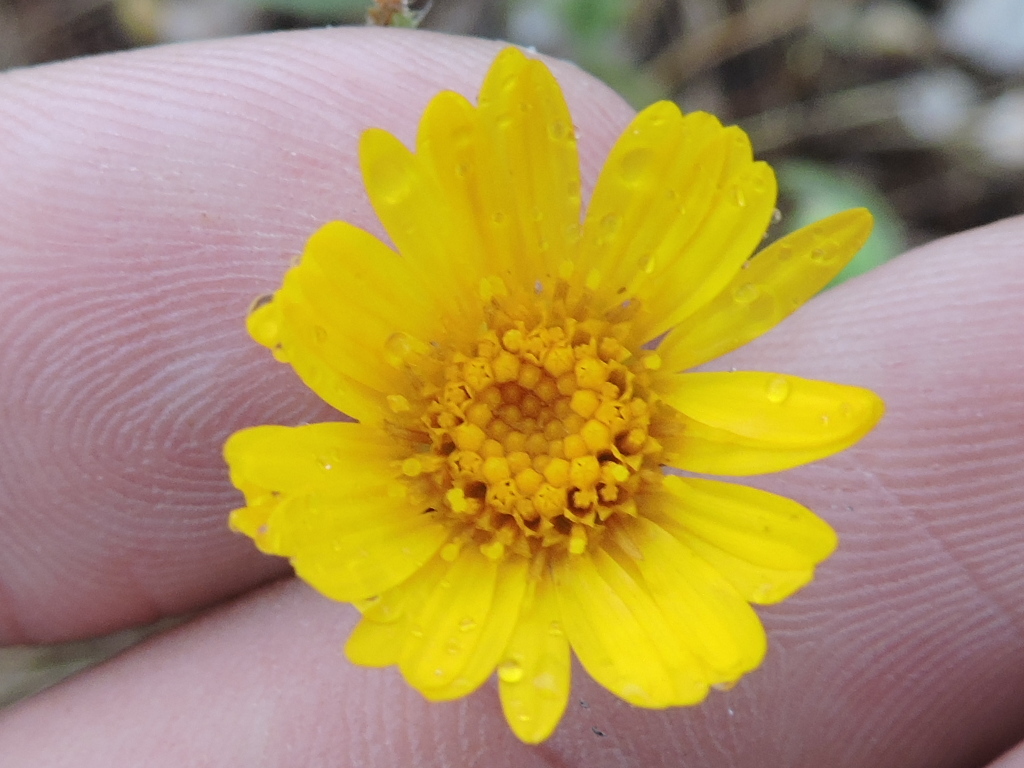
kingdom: Plantae
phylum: Tracheophyta
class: Magnoliopsida
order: Asterales
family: Asteraceae
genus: Heterotheca
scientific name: Heterotheca subaxillaris
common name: Camphorweed
